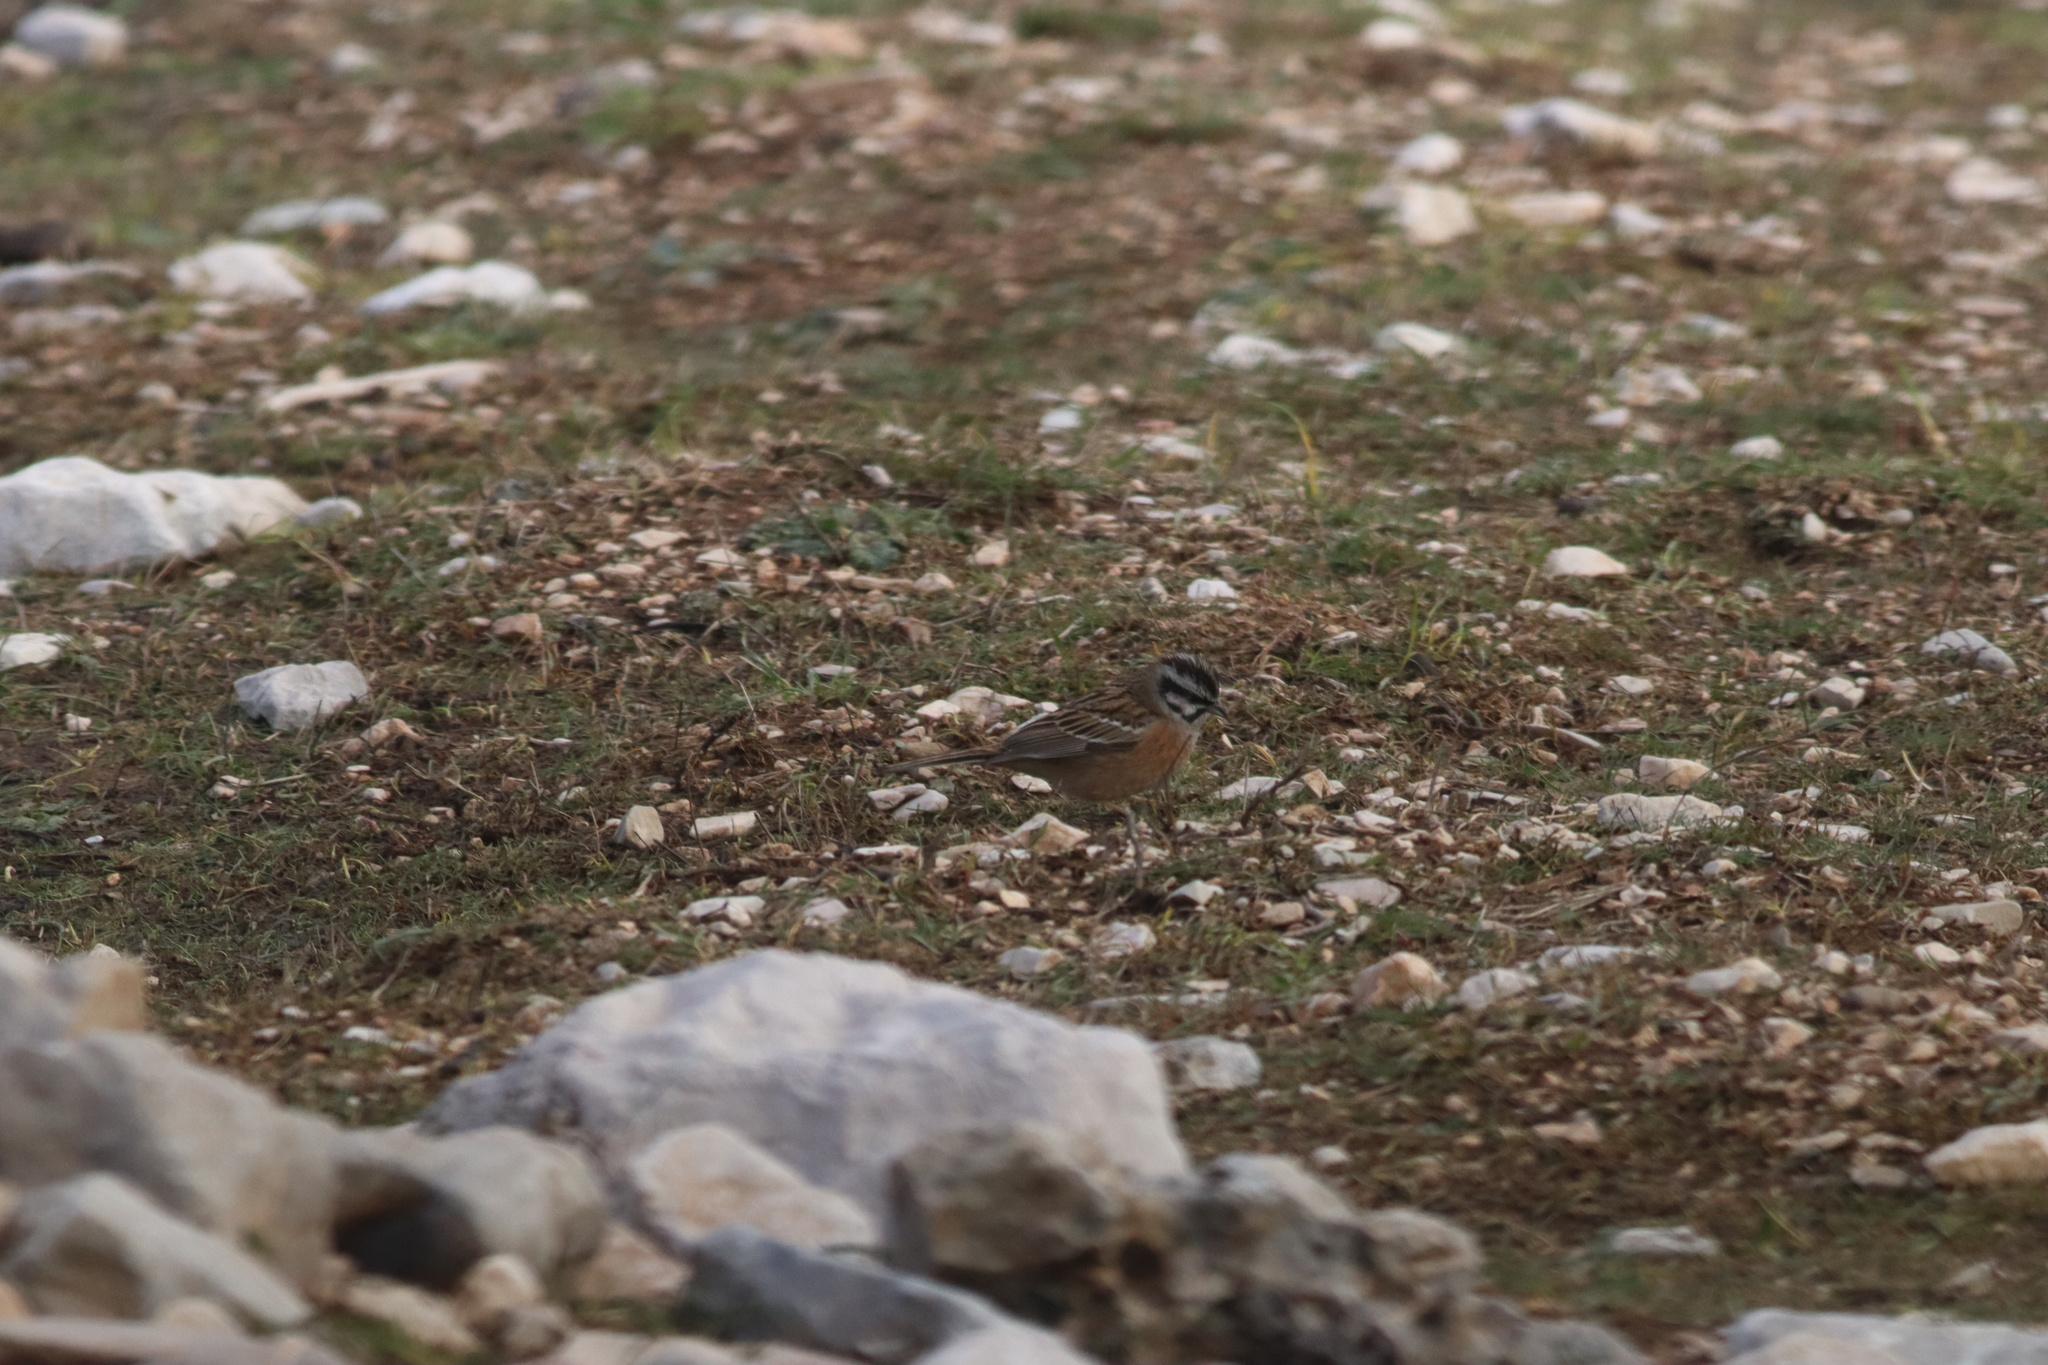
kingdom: Animalia
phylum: Chordata
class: Aves
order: Passeriformes
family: Emberizidae
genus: Emberiza
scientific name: Emberiza cia
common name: Rock bunting
